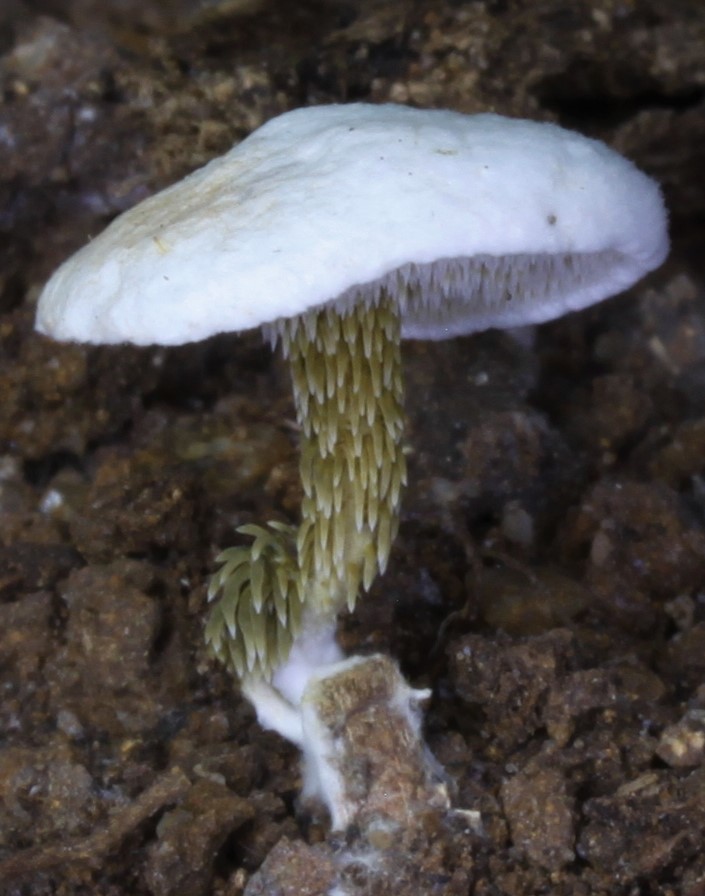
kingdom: Fungi
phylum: Basidiomycota
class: Agaricomycetes
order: Gomphales
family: Clavariadelphaceae
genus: Beenakia
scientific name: Beenakia dacostae
